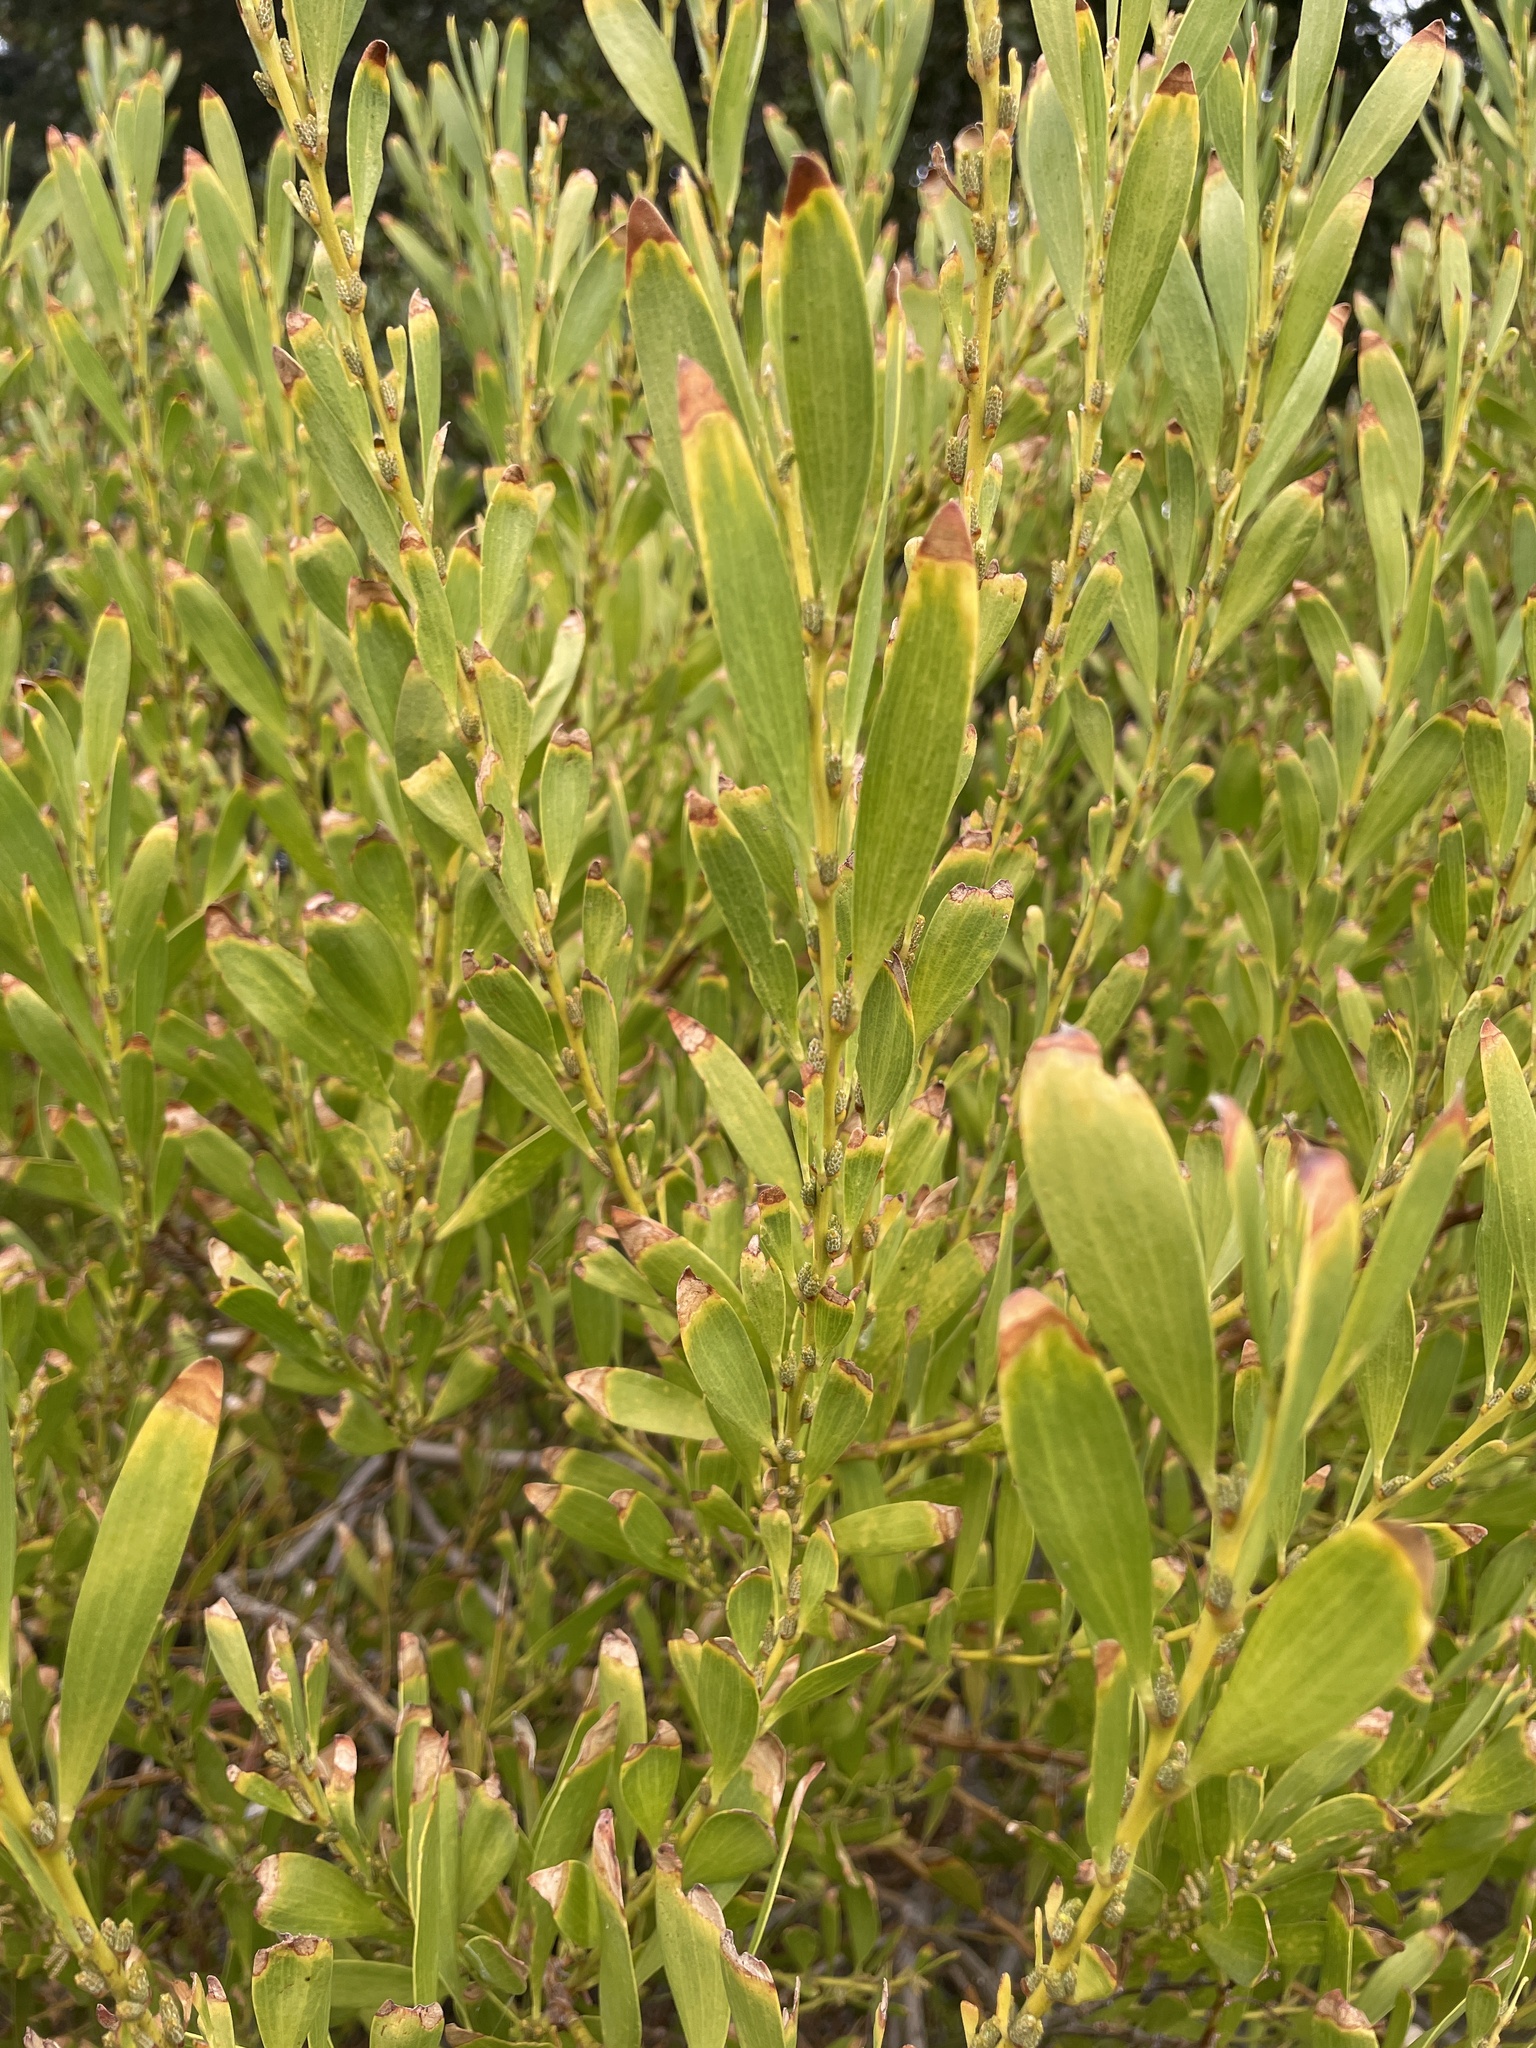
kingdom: Plantae
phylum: Tracheophyta
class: Magnoliopsida
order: Fabales
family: Fabaceae
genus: Acacia
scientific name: Acacia longifolia
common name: Sydney golden wattle
